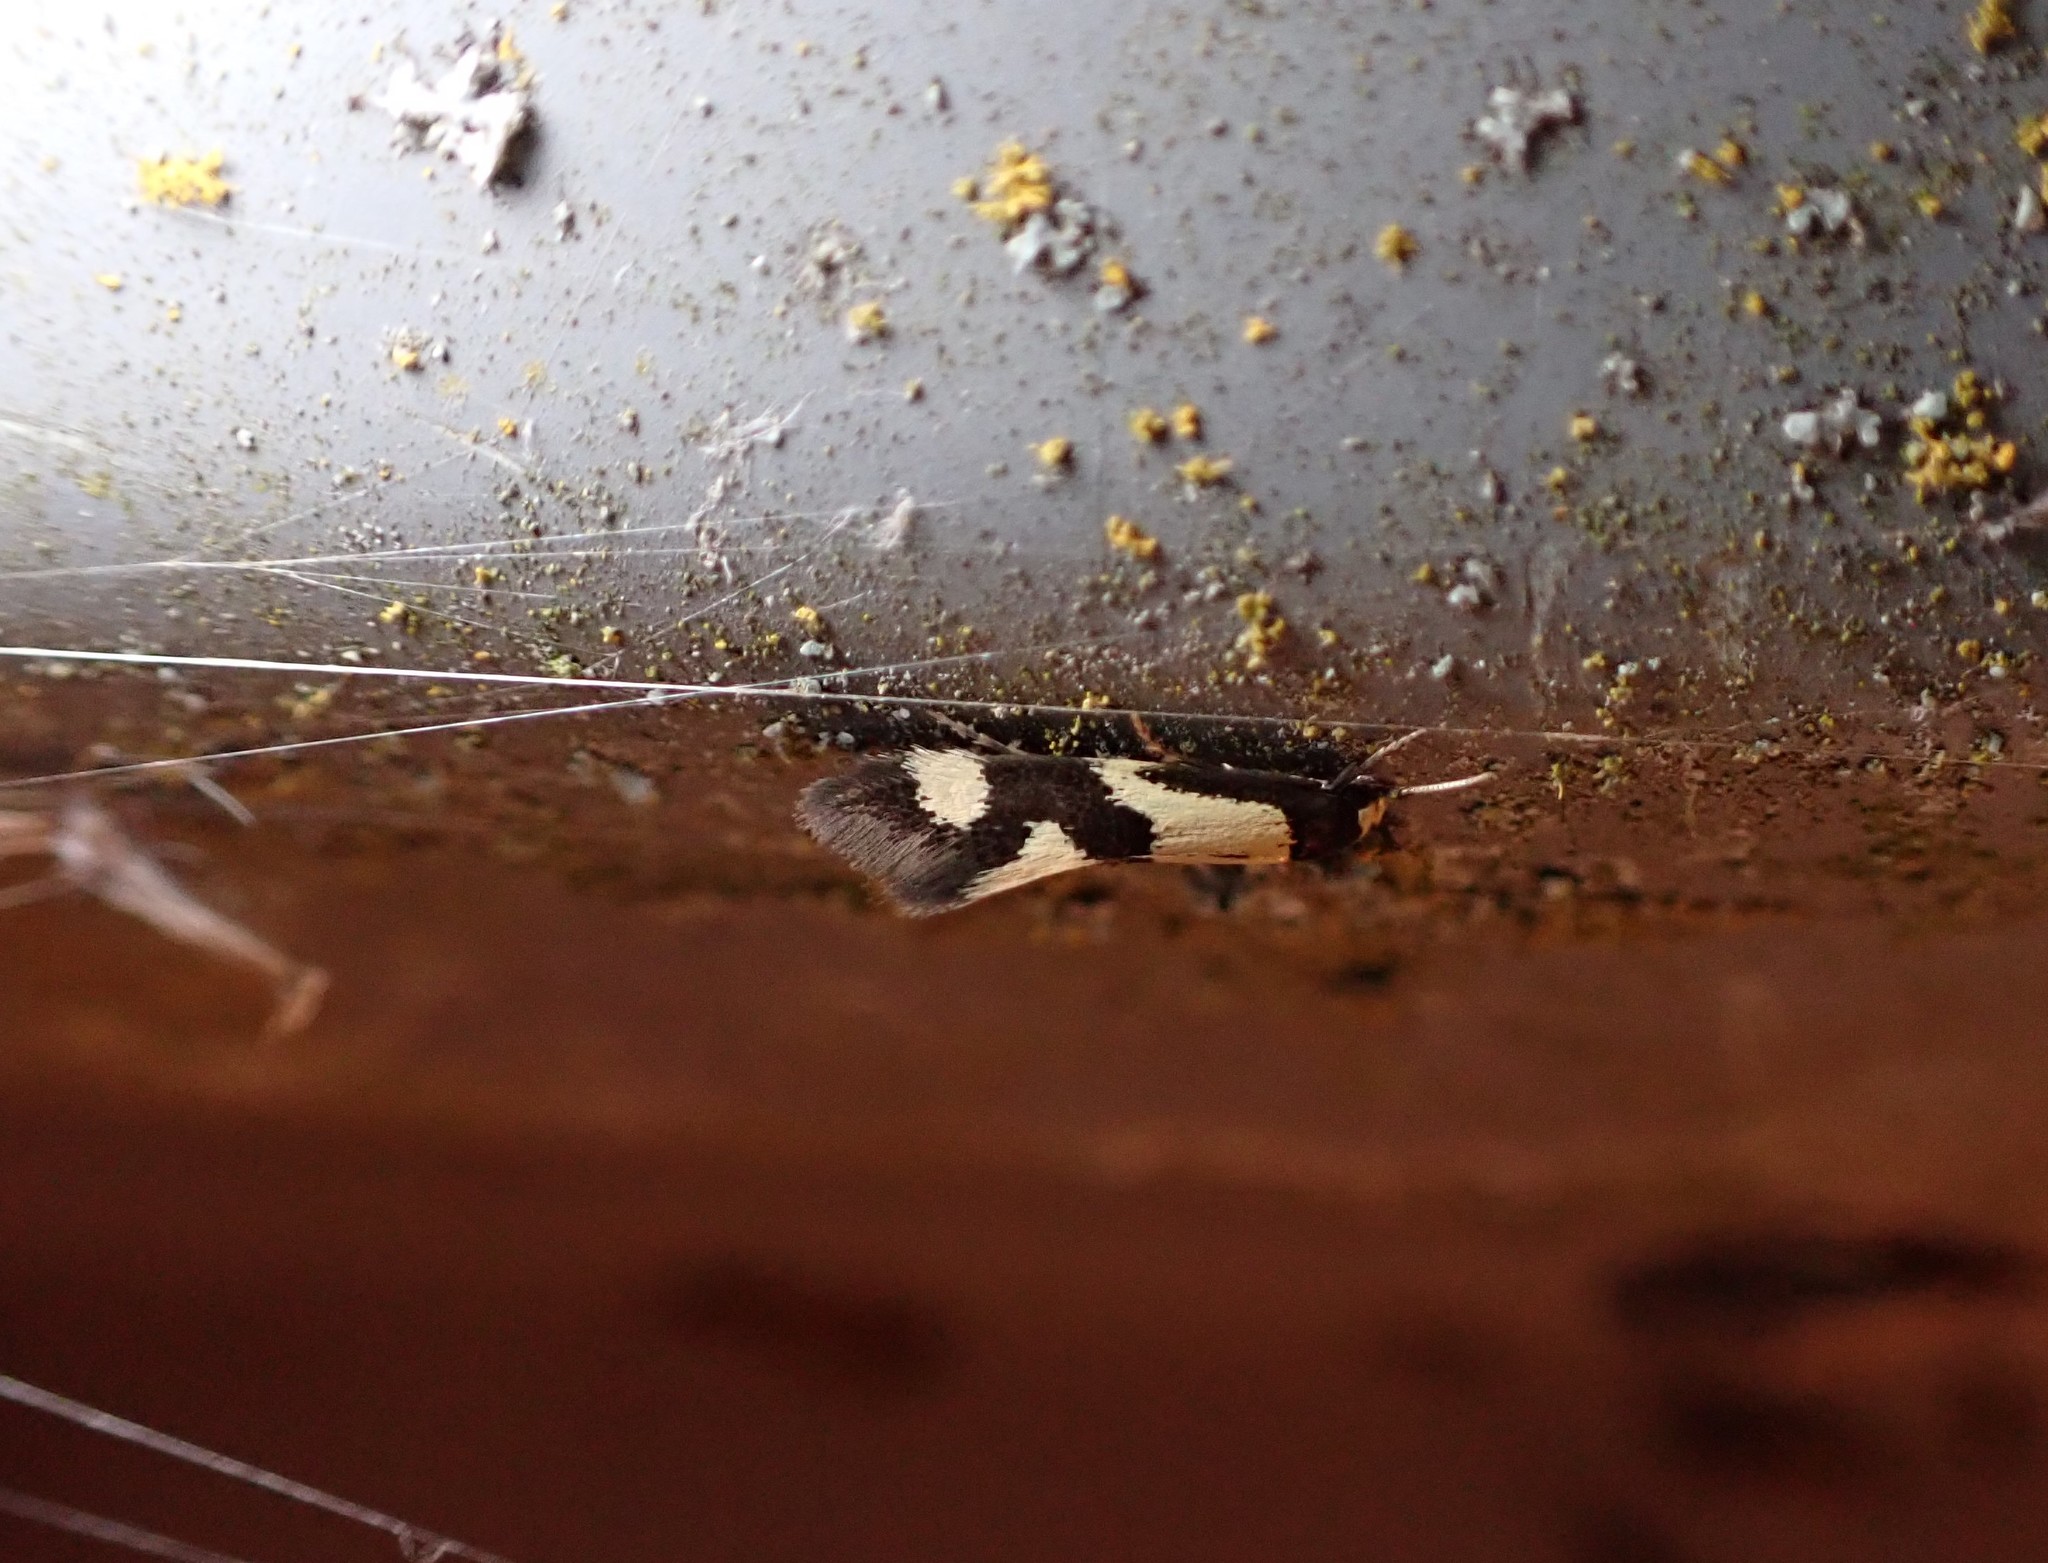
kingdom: Animalia
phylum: Arthropoda
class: Insecta
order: Lepidoptera
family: Tineidae
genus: Opogona
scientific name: Opogona comptella
